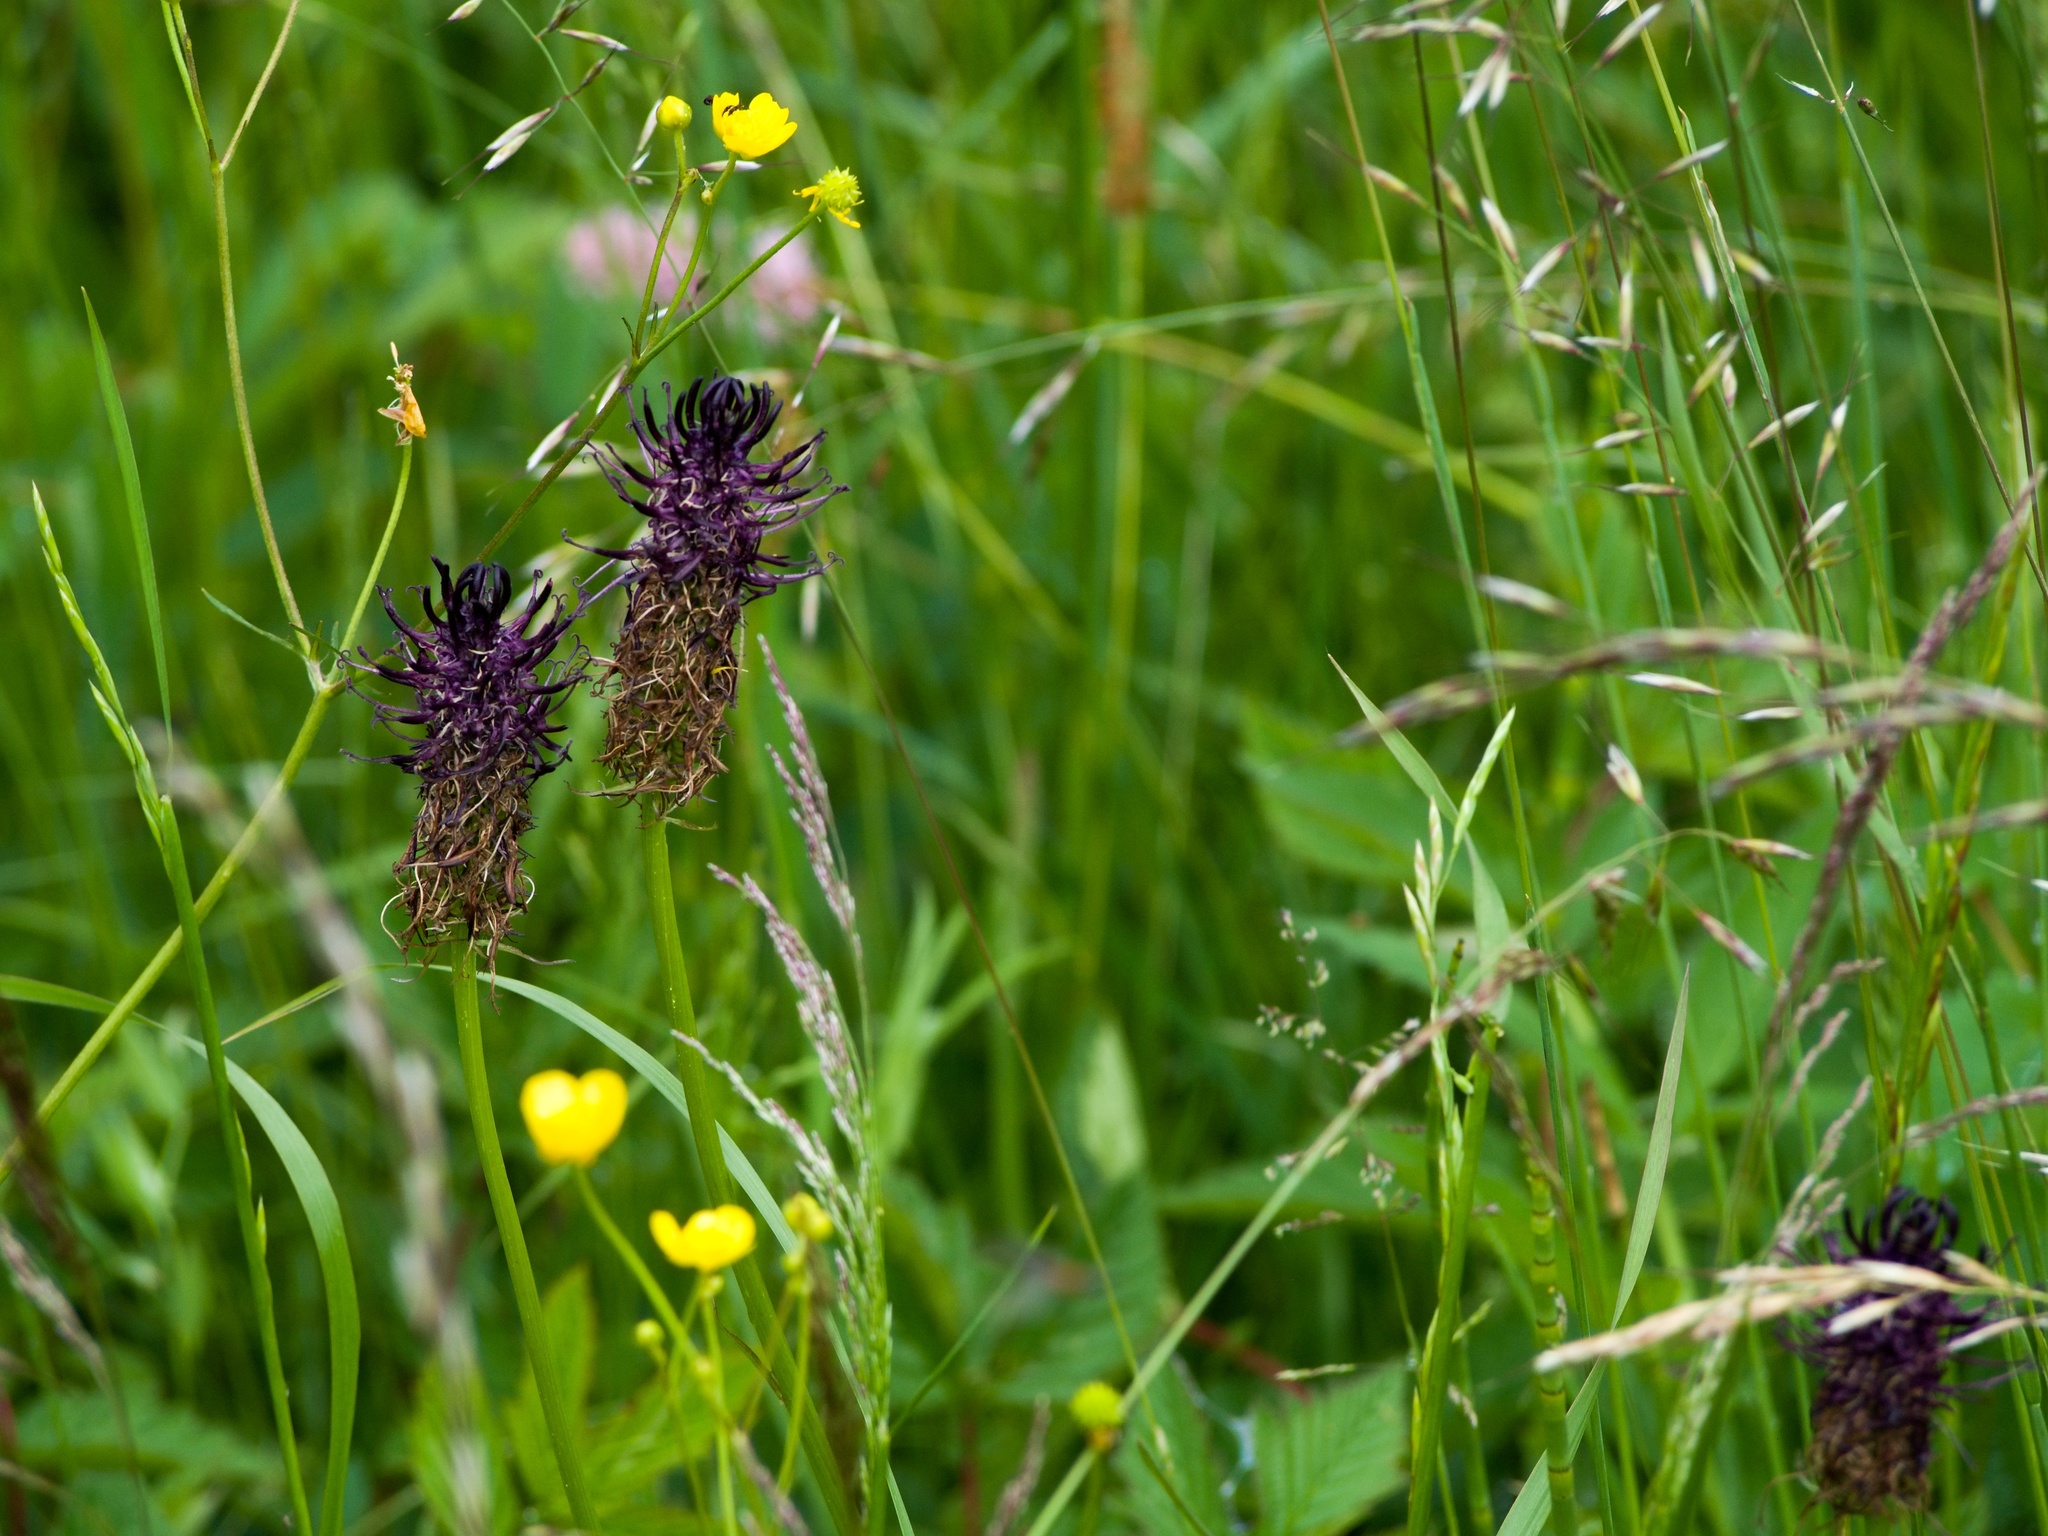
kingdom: Plantae
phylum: Tracheophyta
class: Magnoliopsida
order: Asterales
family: Campanulaceae
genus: Phyteuma
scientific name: Phyteuma nigrum
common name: Black rampion
